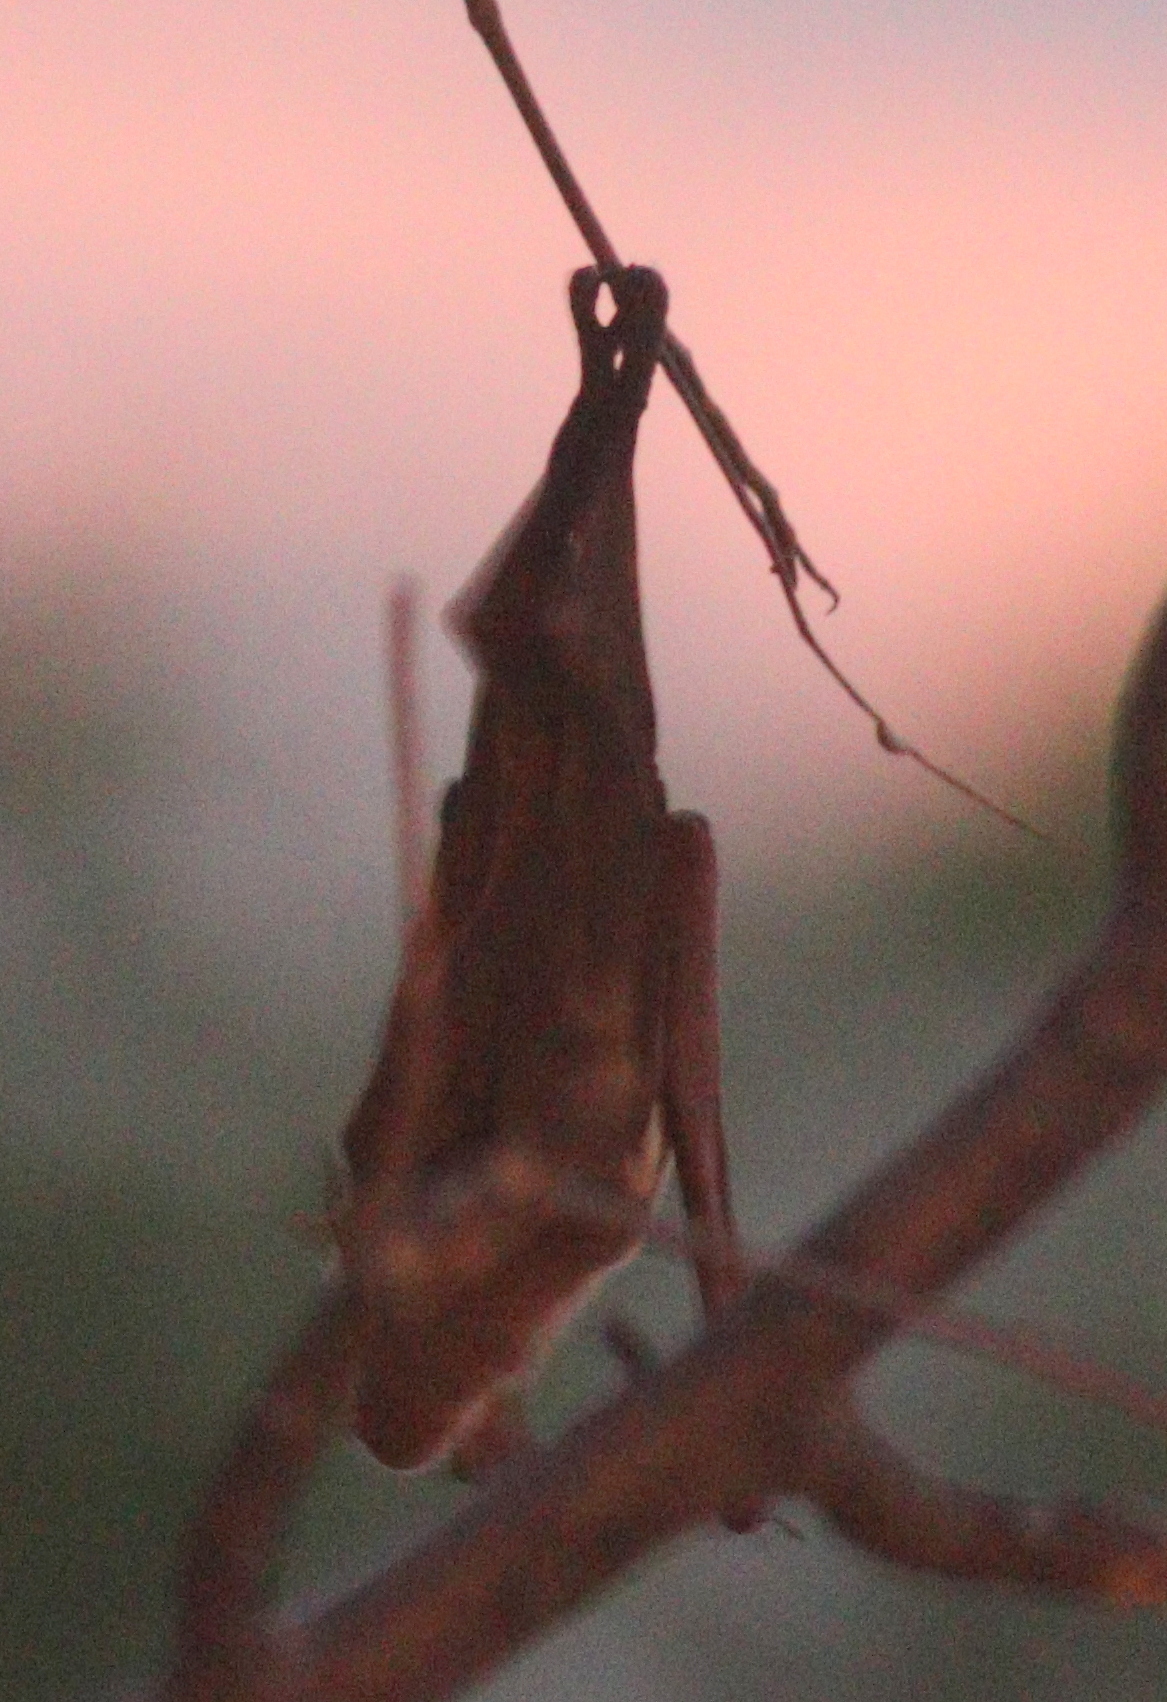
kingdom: Animalia
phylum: Chordata
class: Mammalia
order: Chiroptera
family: Hipposideridae
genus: Macronycteris
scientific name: Macronycteris vittatus
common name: Striped leaf-nosed bat
